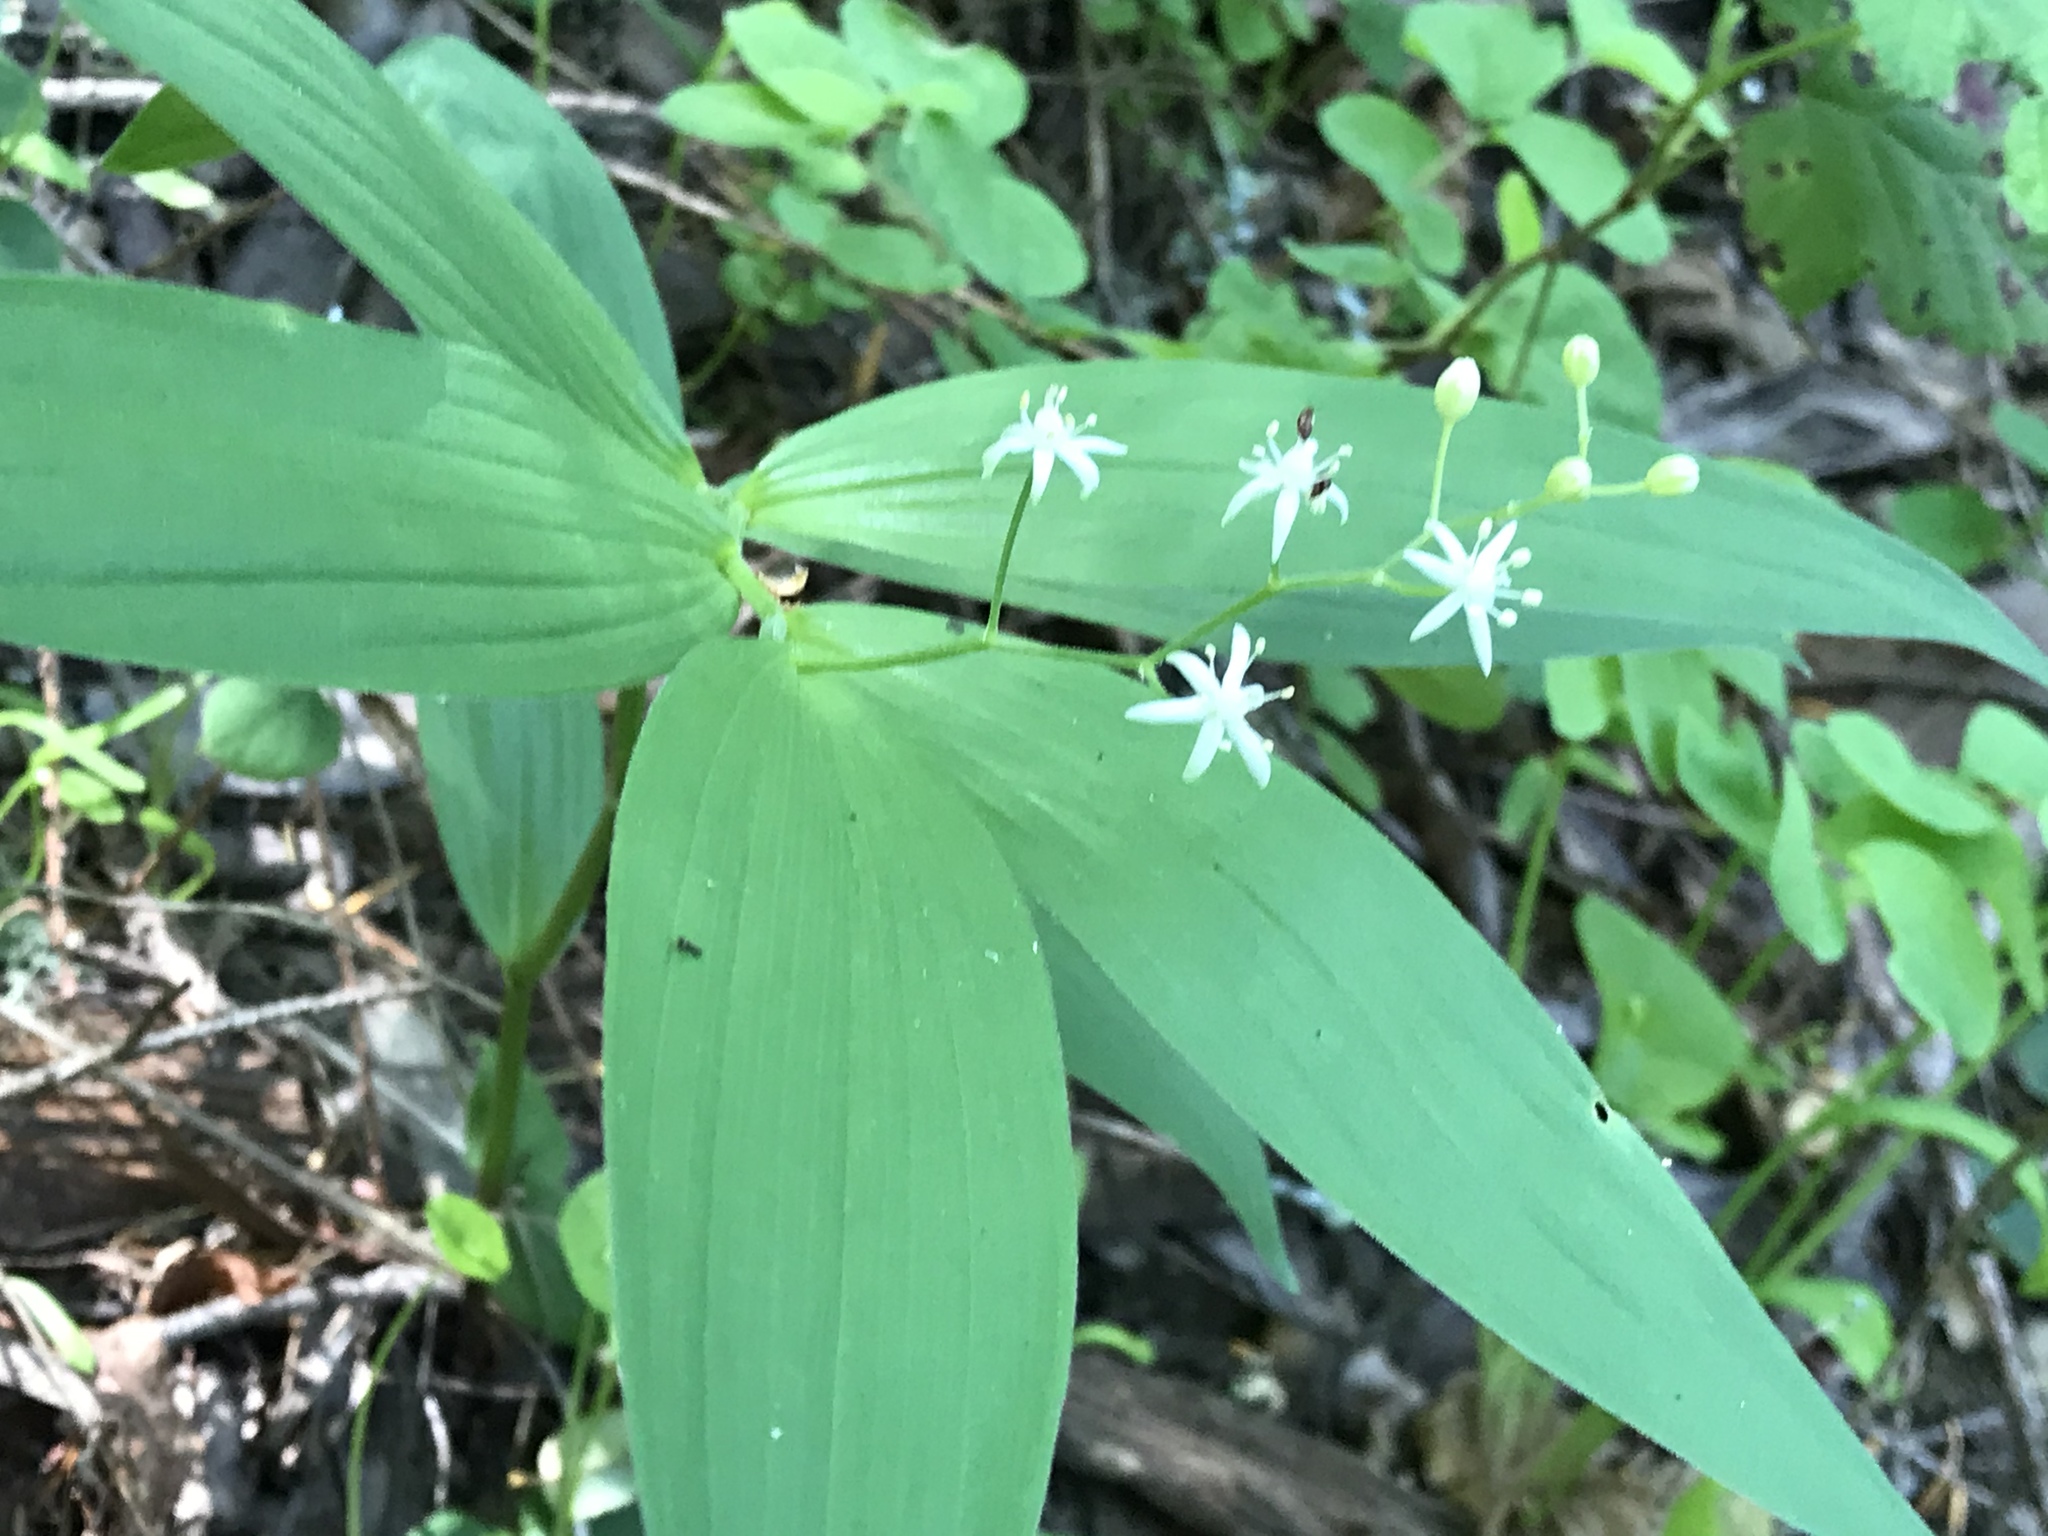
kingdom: Plantae
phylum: Tracheophyta
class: Liliopsida
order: Asparagales
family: Asparagaceae
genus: Maianthemum
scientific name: Maianthemum stellatum
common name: Little false solomon's seal
